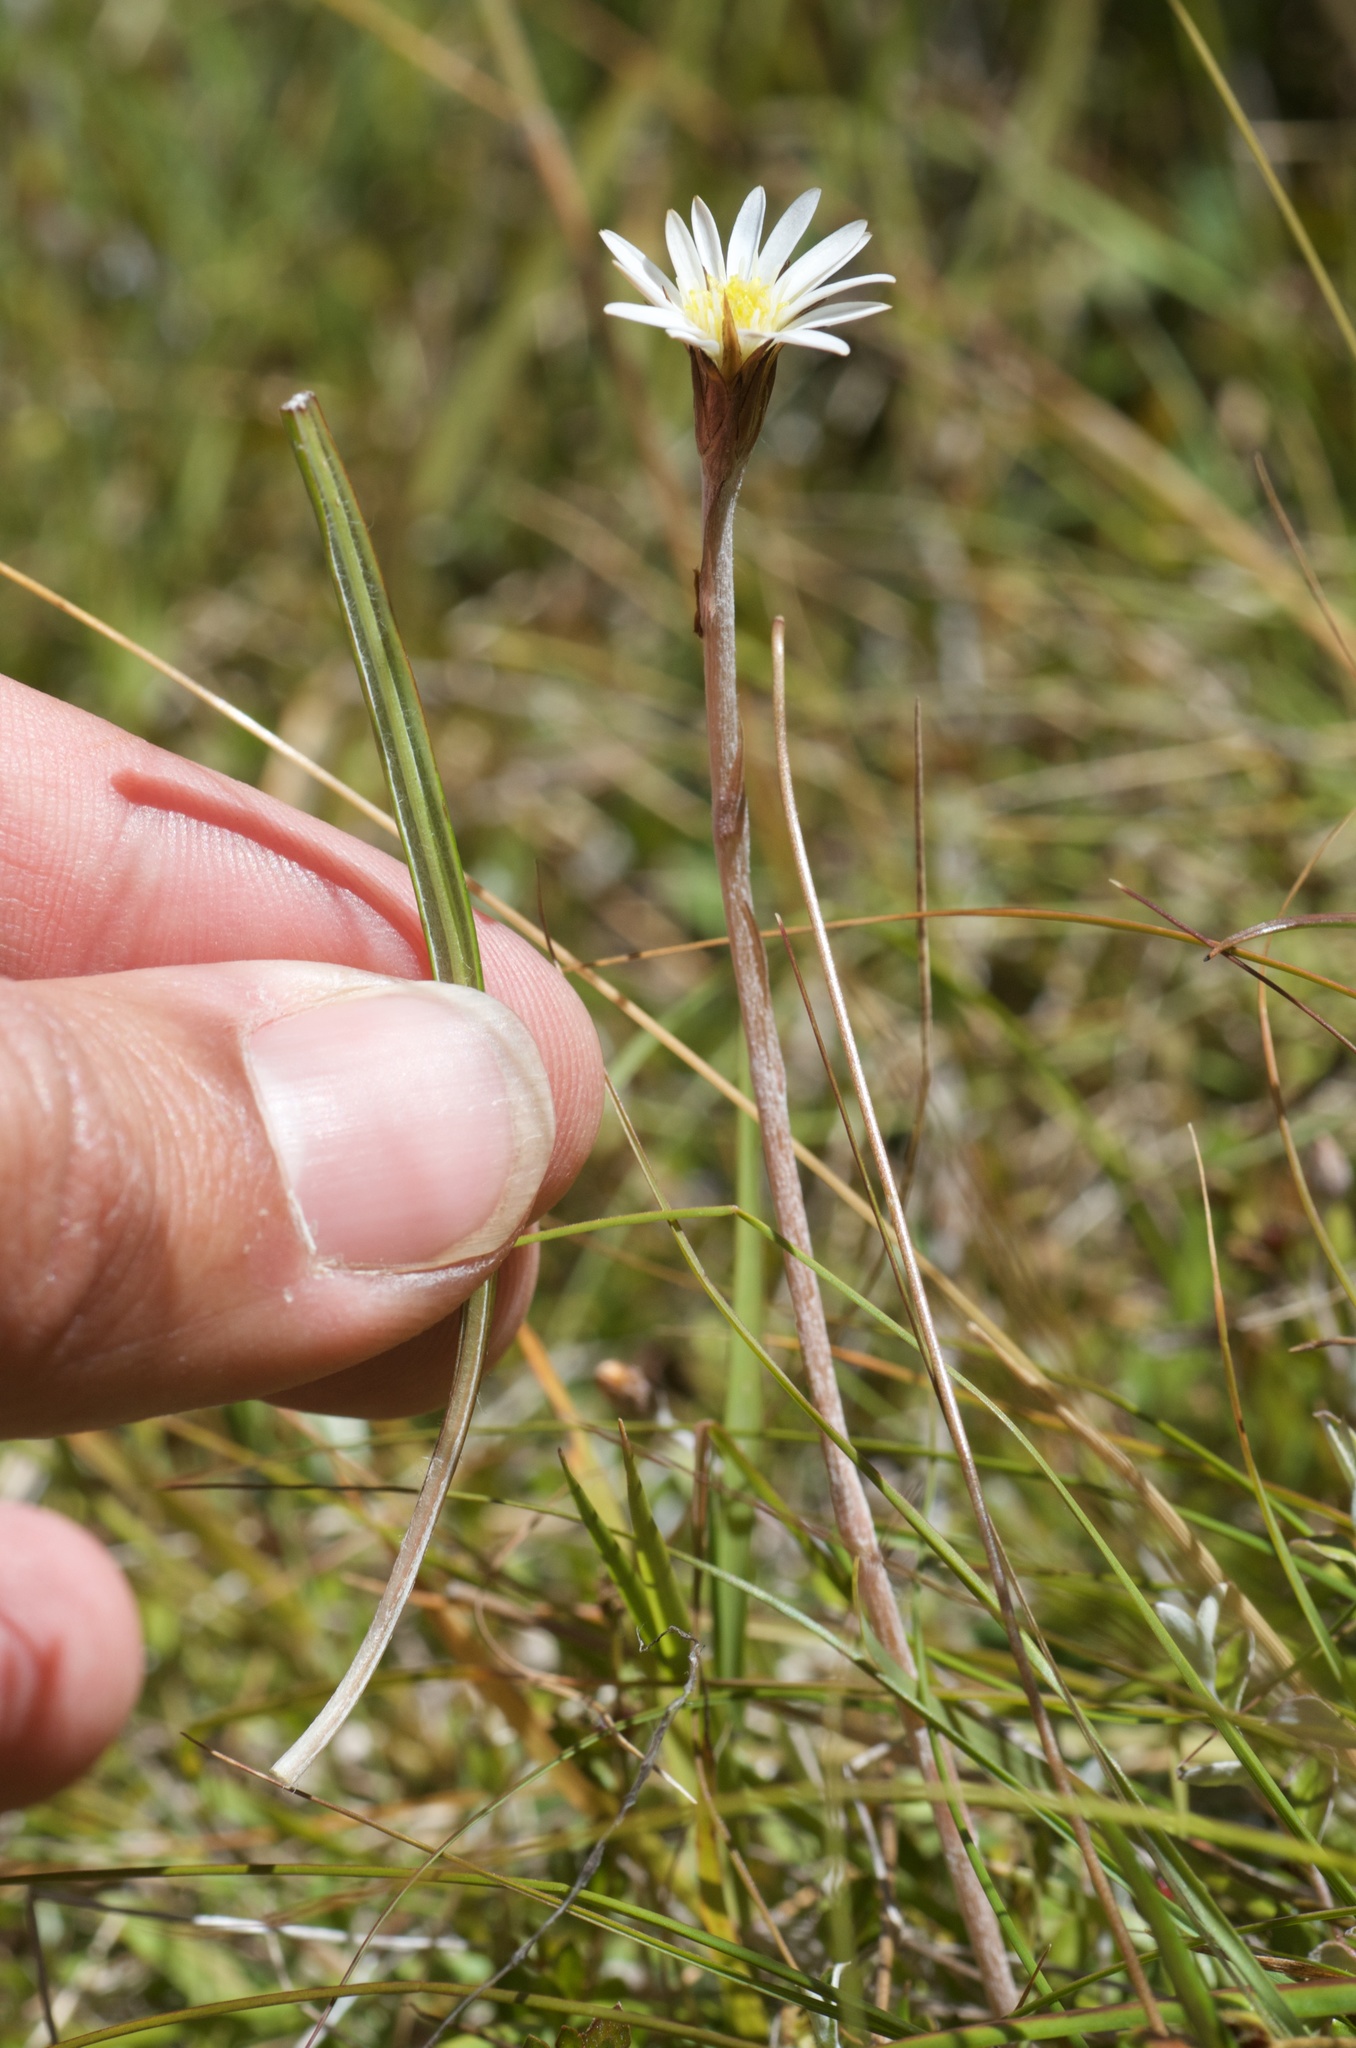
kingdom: Plantae
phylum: Tracheophyta
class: Magnoliopsida
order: Asterales
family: Asteraceae
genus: Celmisia
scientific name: Celmisia gracilenta
